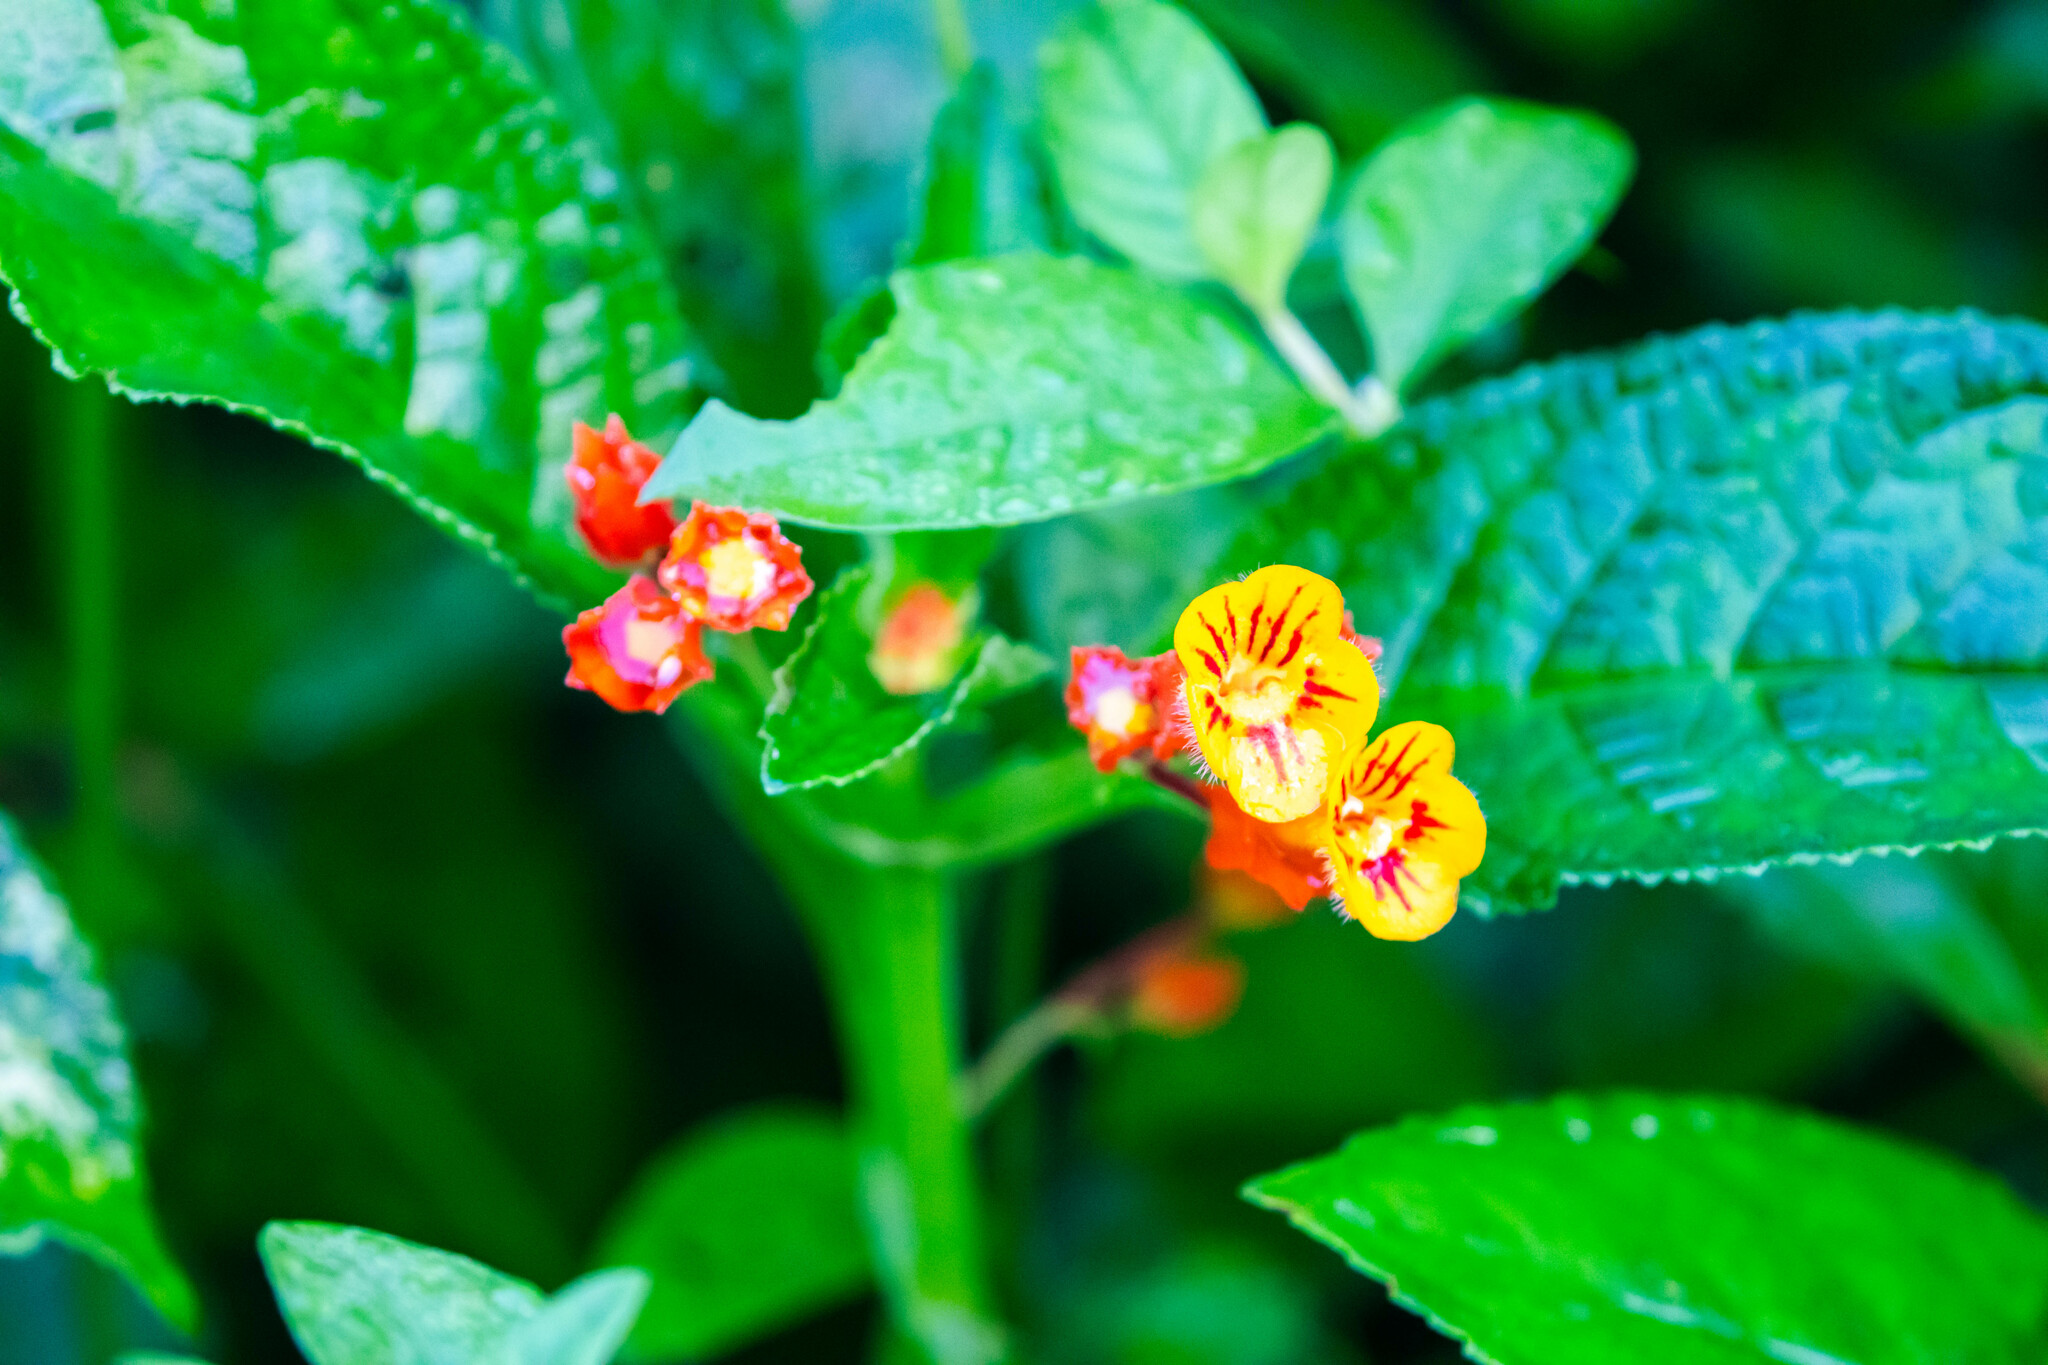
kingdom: Plantae
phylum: Tracheophyta
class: Magnoliopsida
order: Lamiales
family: Gesneriaceae
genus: Chrysothemis
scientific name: Chrysothemis pulchella
